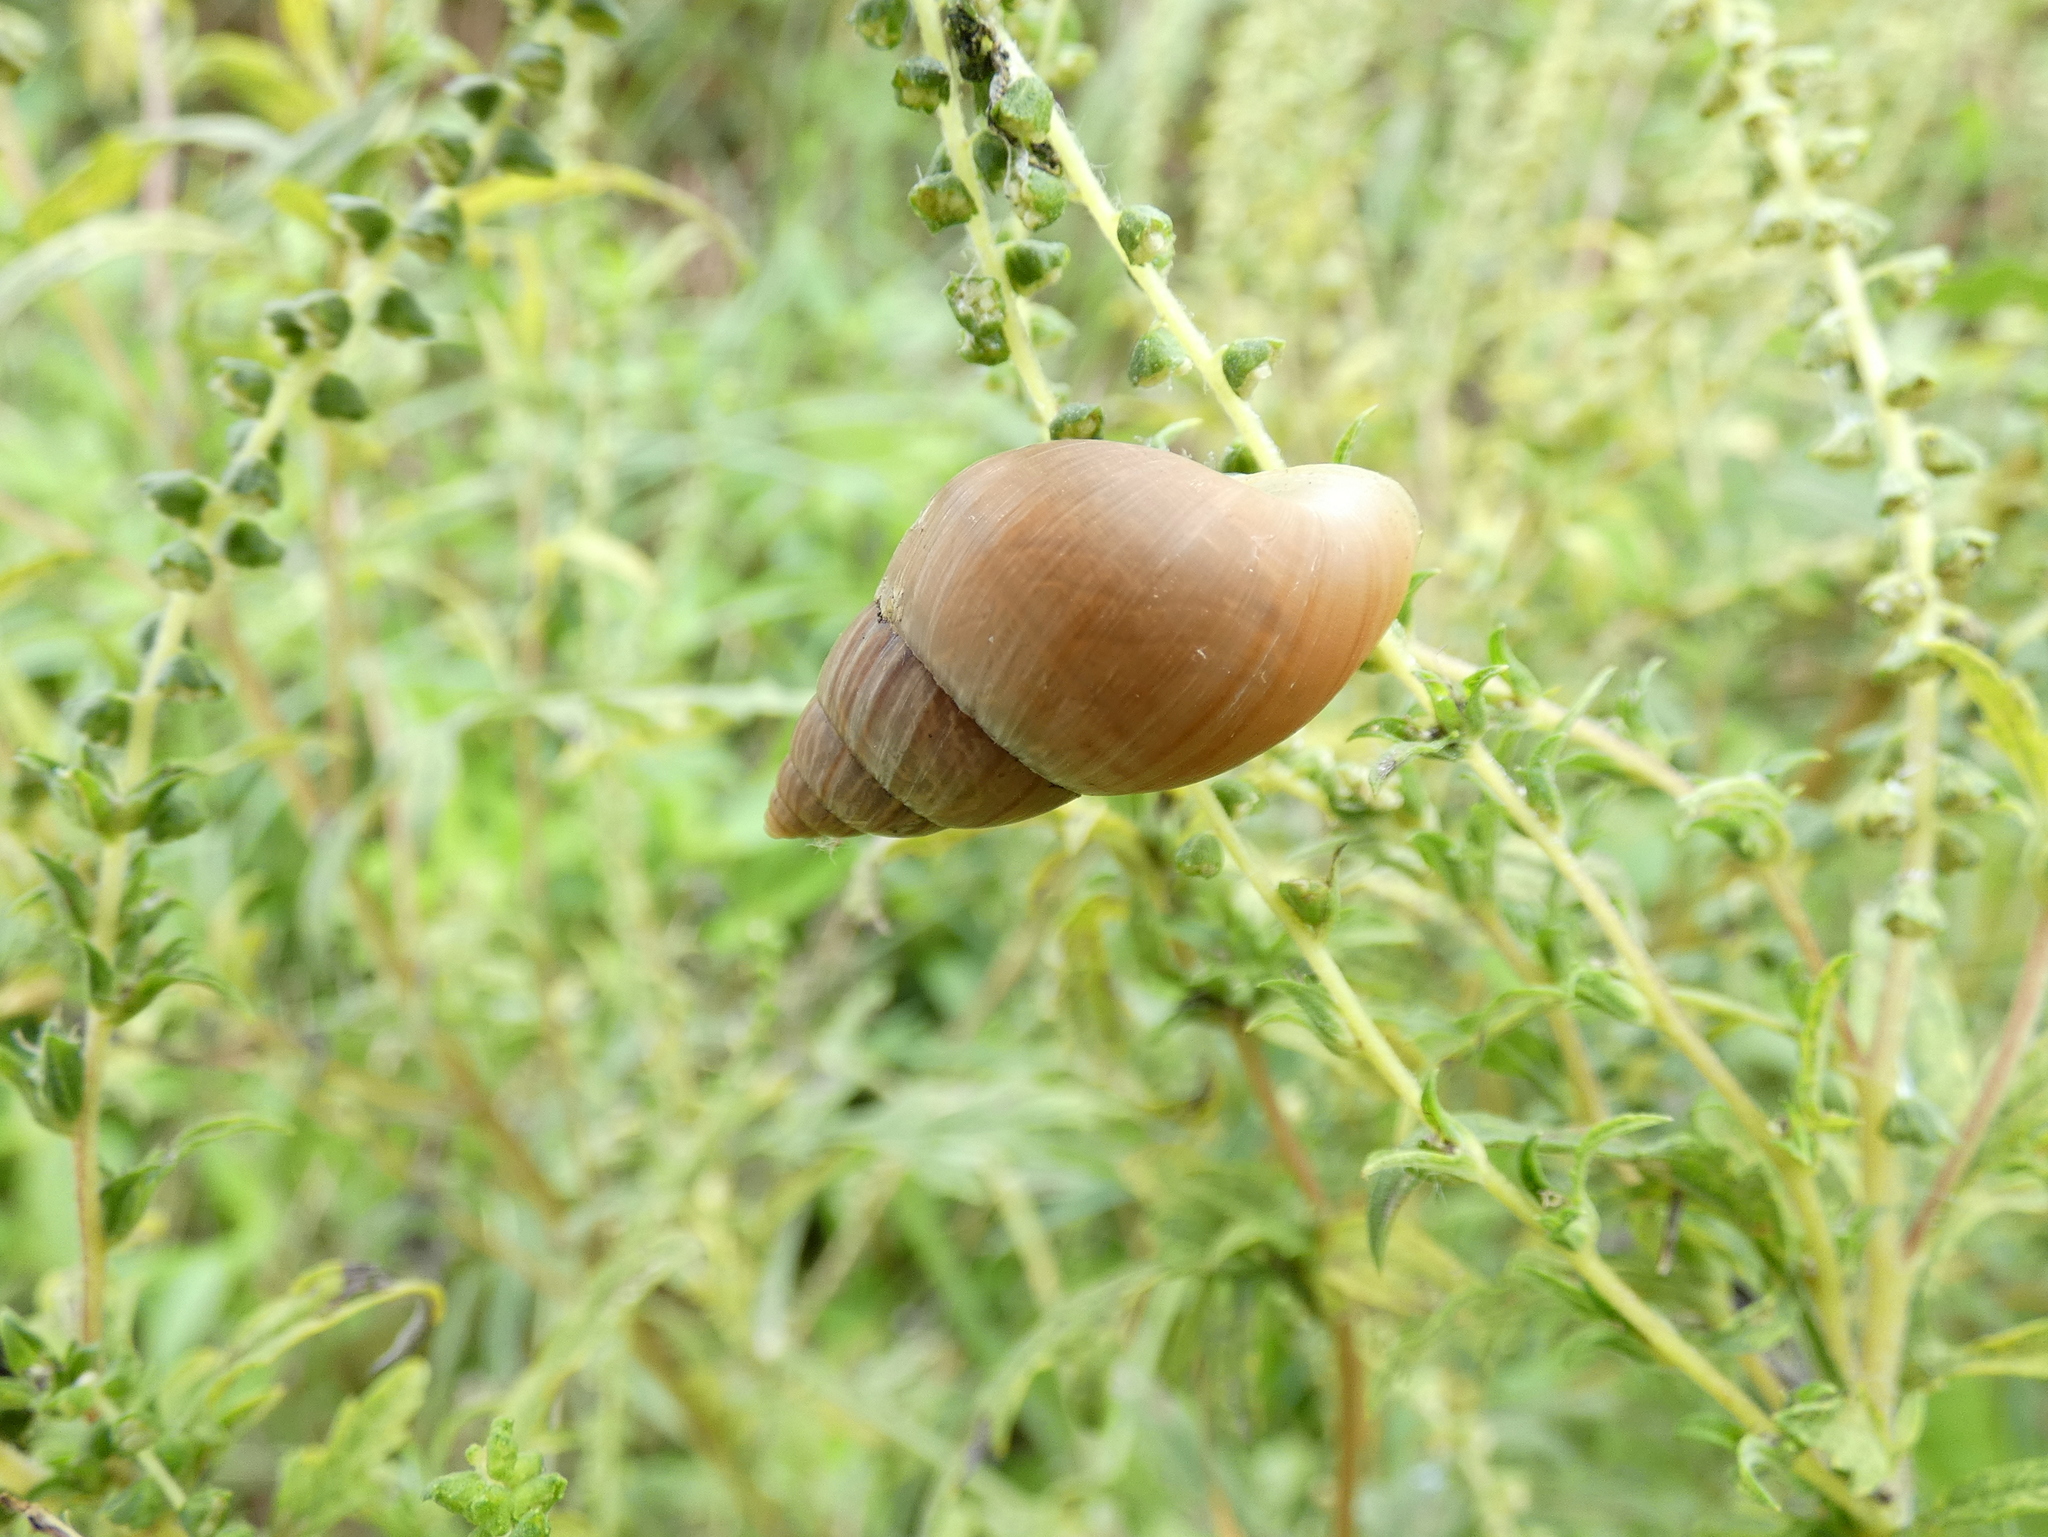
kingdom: Animalia
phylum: Mollusca
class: Gastropoda
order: Stylommatophora
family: Bulimulidae
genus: Bulimulus
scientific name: Bulimulus bonariensis
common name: Snail
